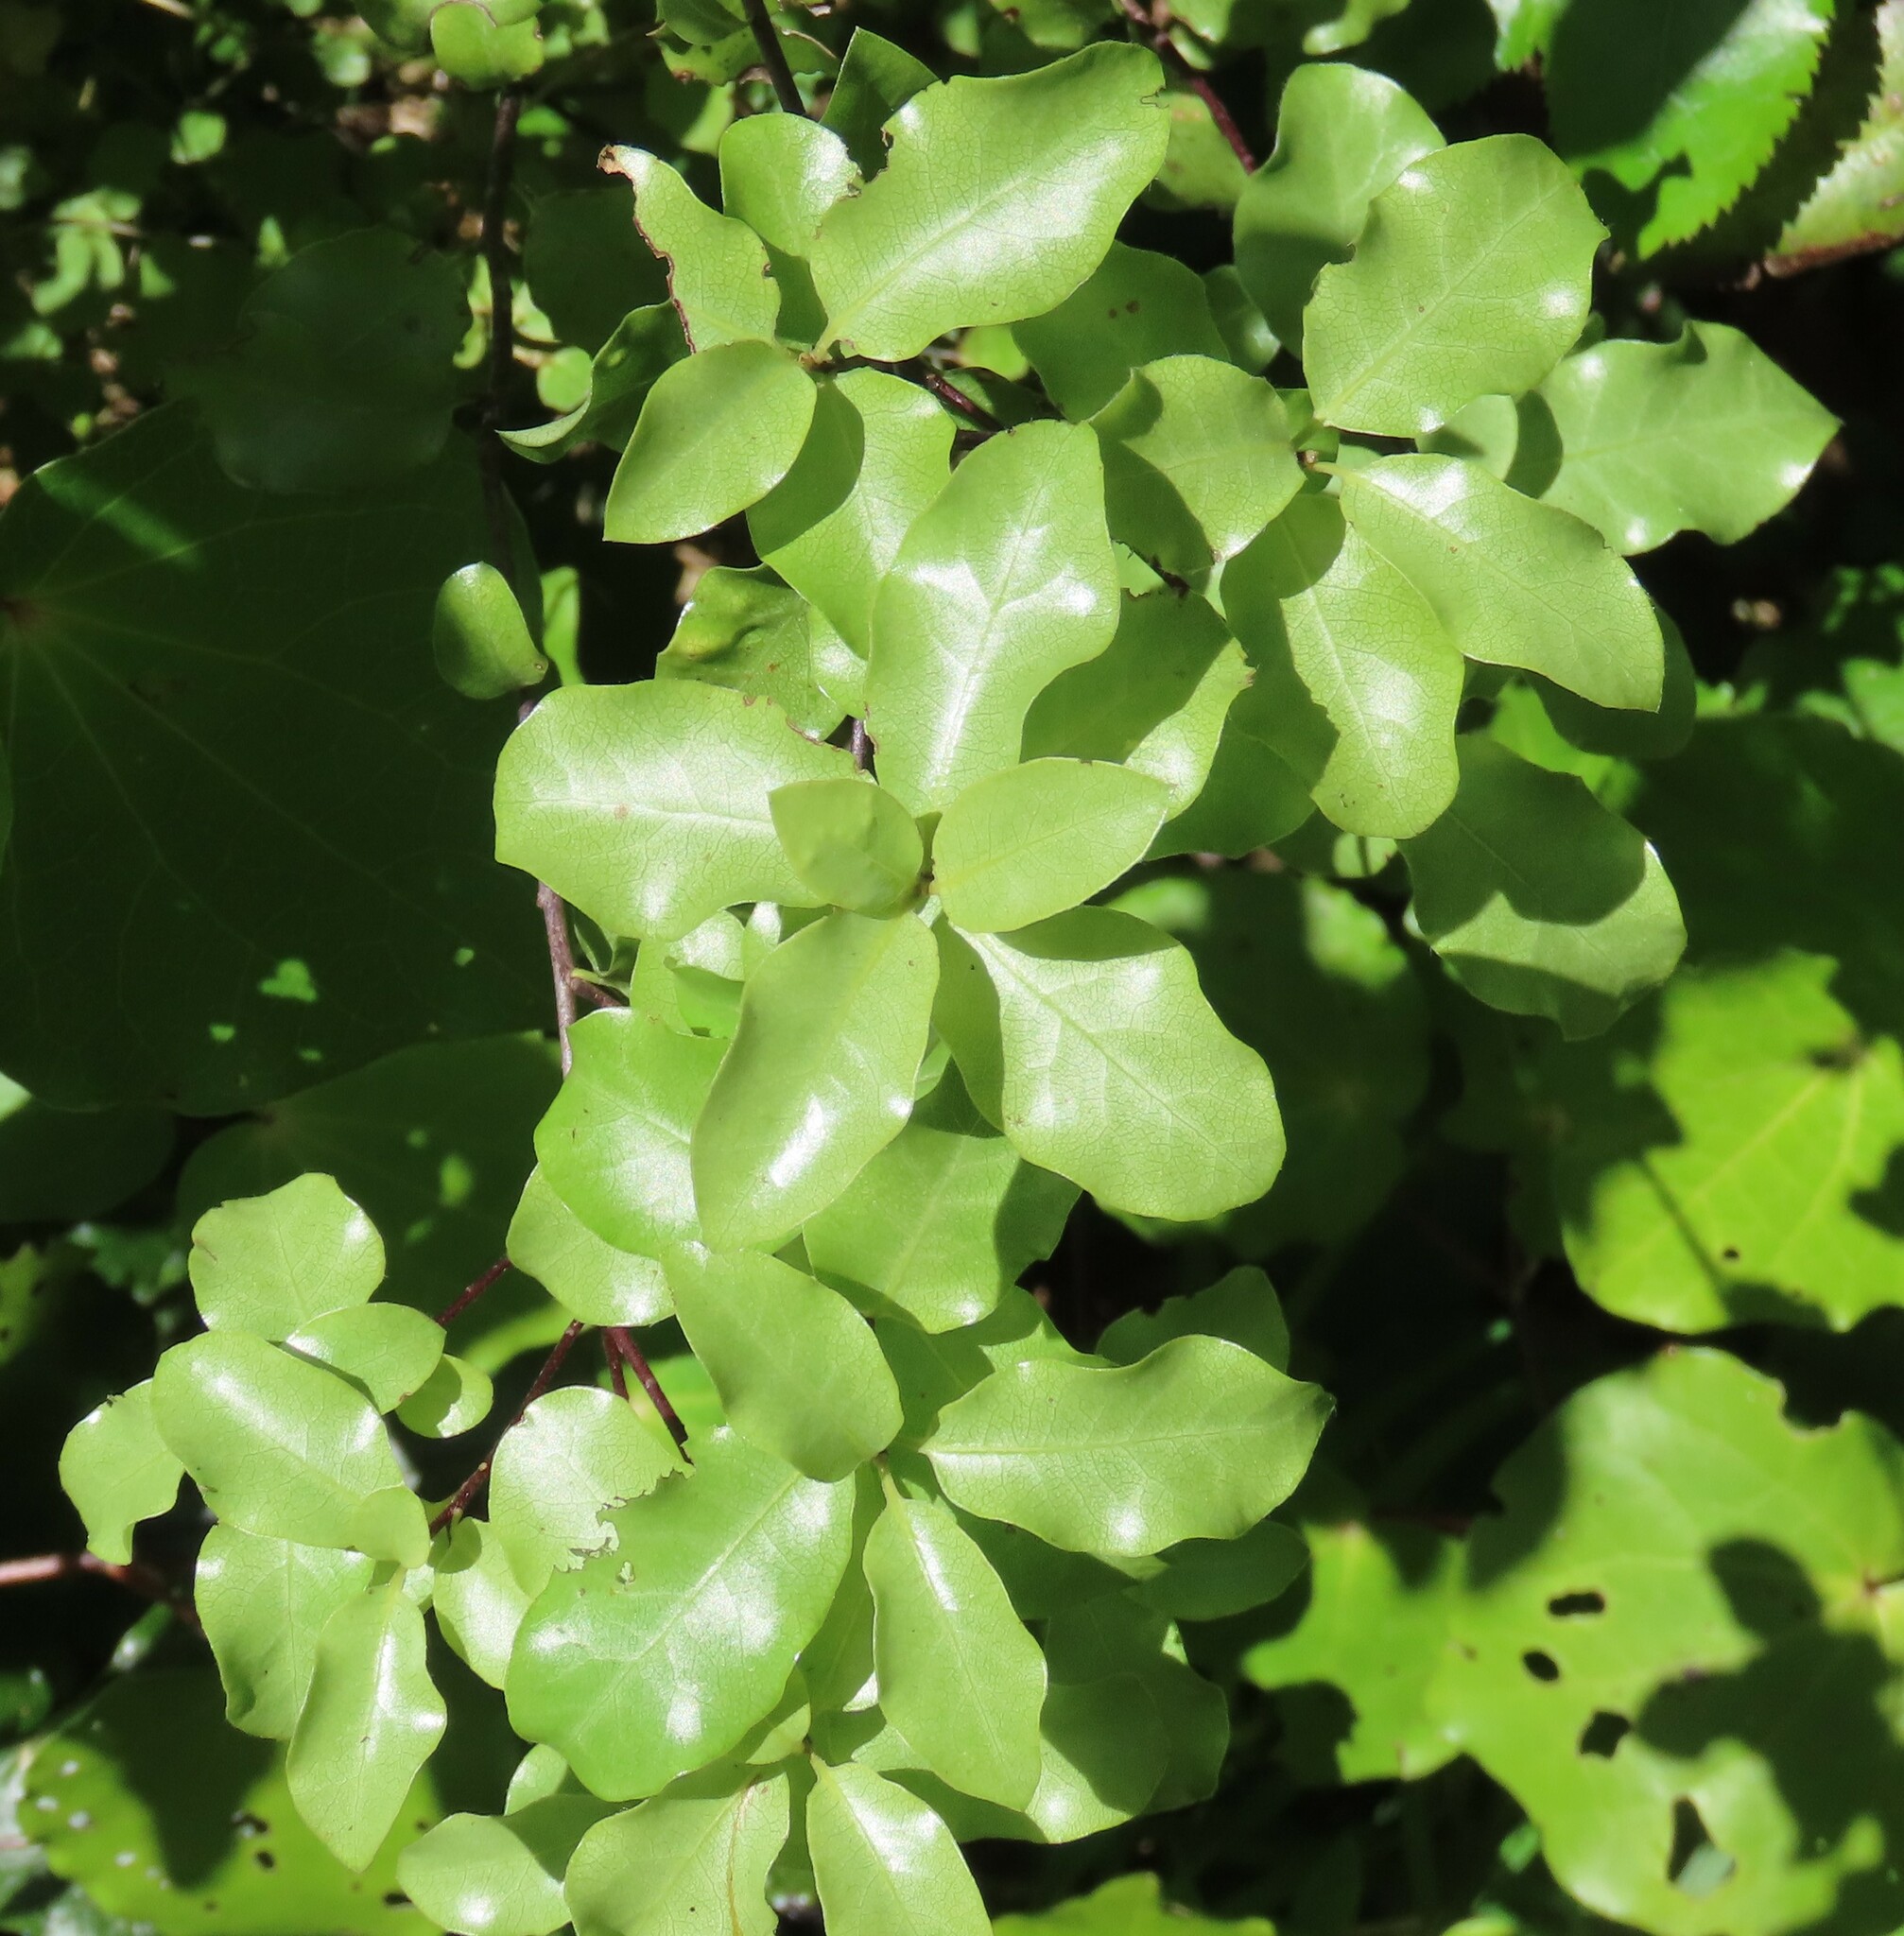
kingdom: Plantae
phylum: Tracheophyta
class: Magnoliopsida
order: Apiales
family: Pittosporaceae
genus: Pittosporum
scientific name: Pittosporum tenuifolium
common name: Kohuhu
